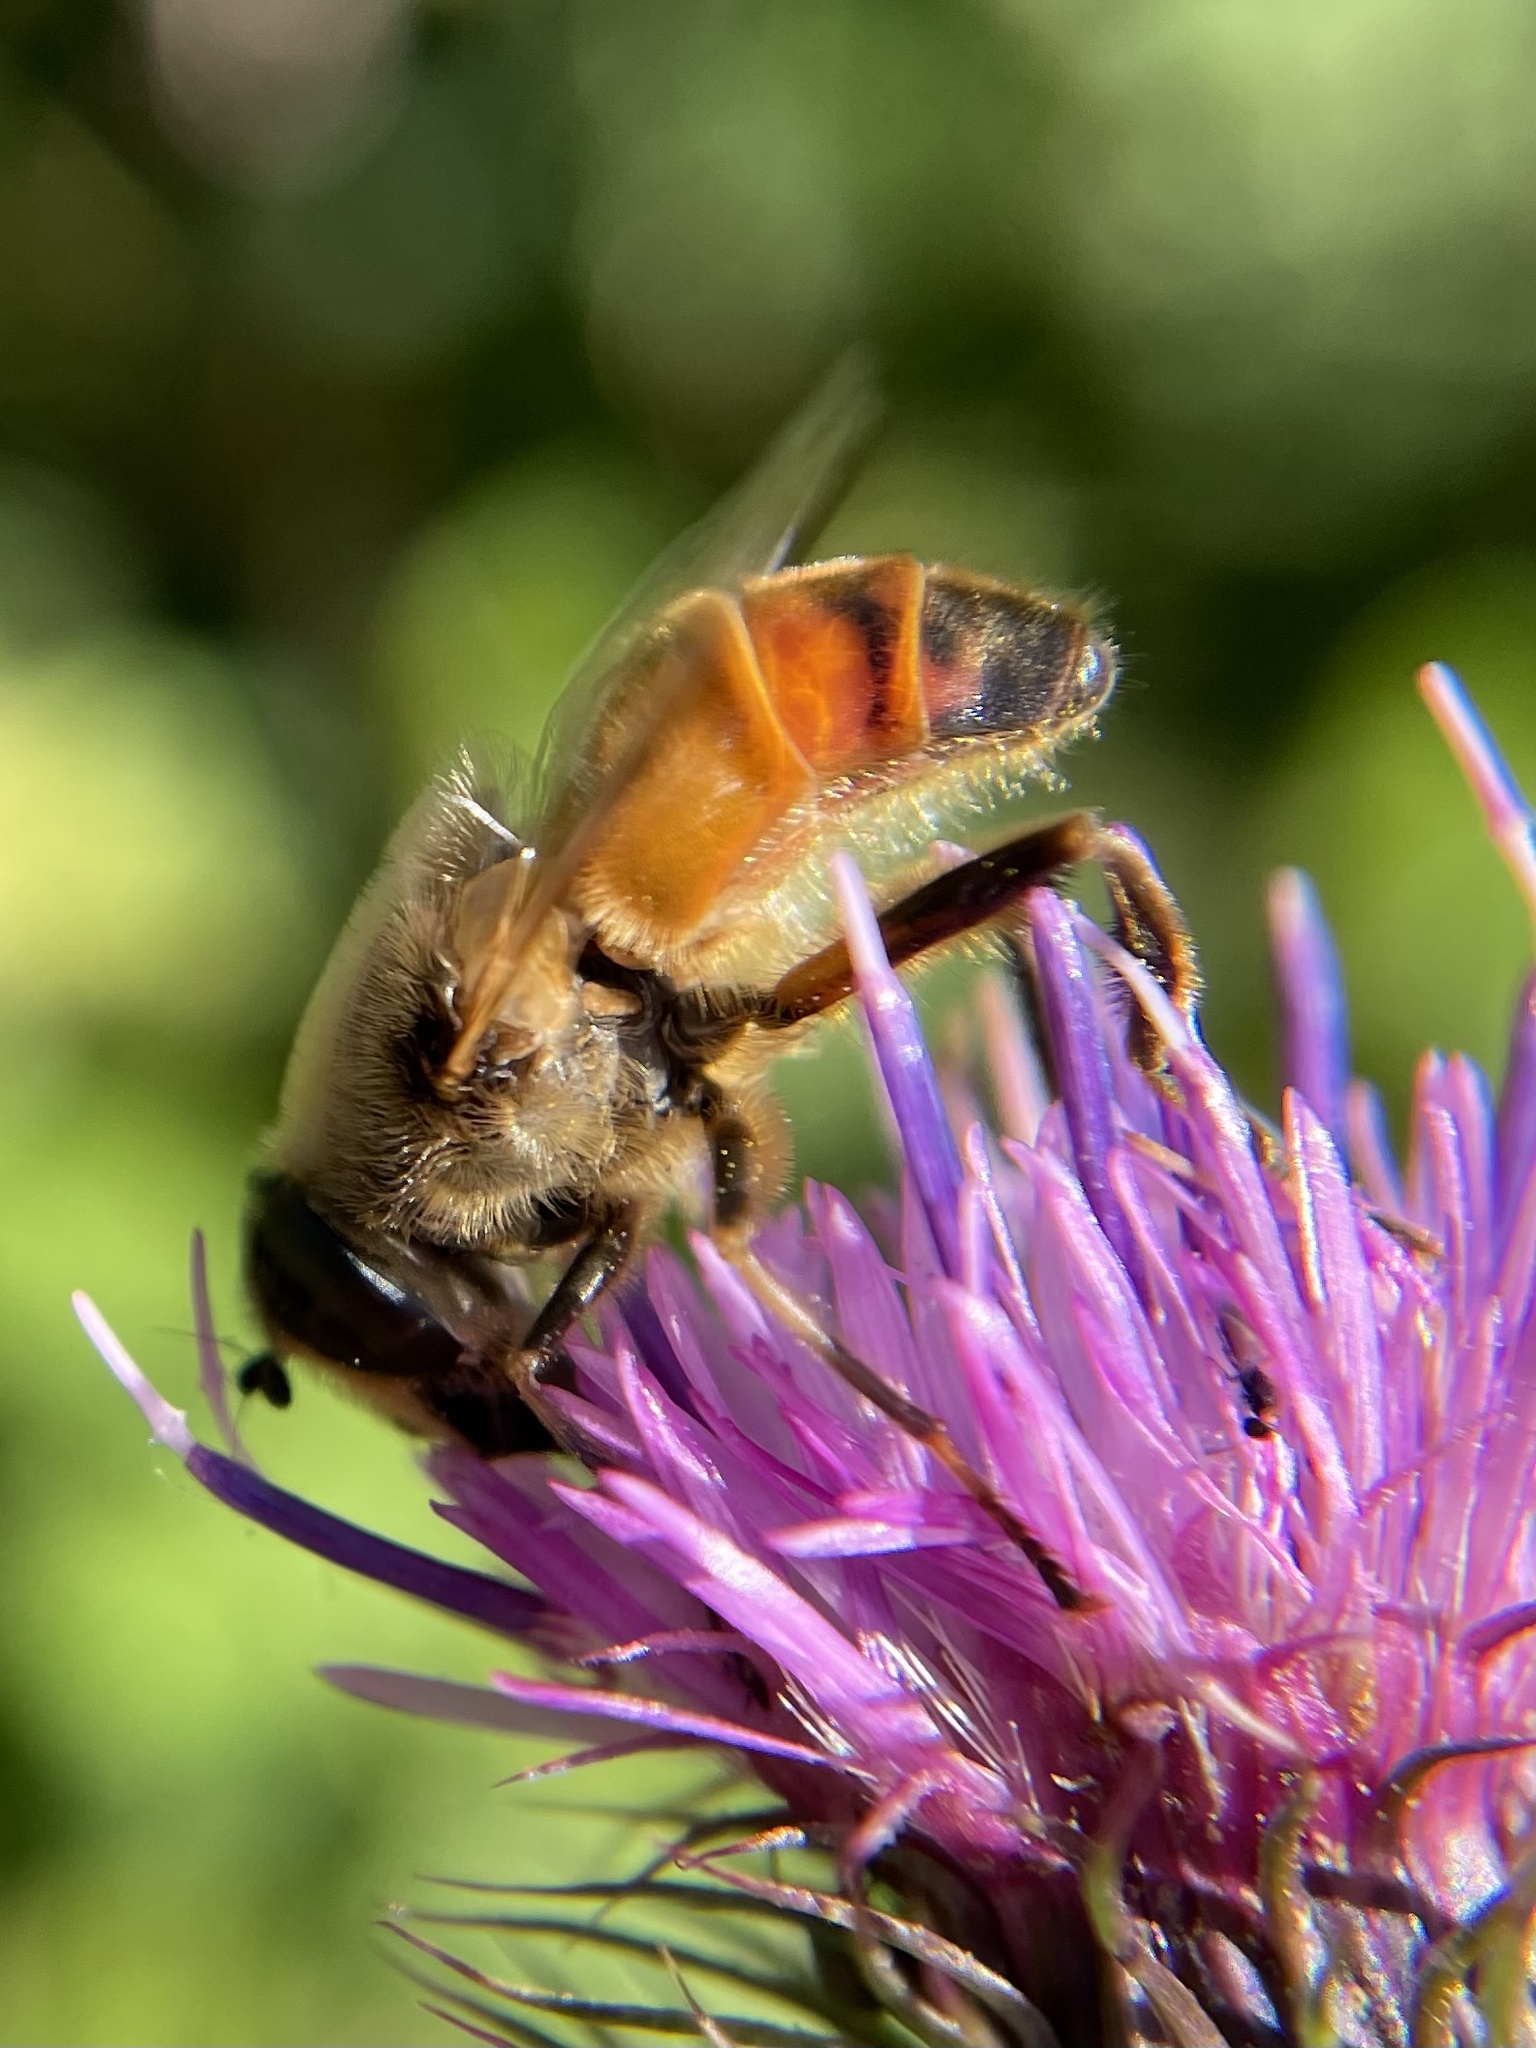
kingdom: Animalia
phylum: Arthropoda
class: Insecta
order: Diptera
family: Syrphidae
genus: Eristalis
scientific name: Eristalis tenax
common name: Drone fly
